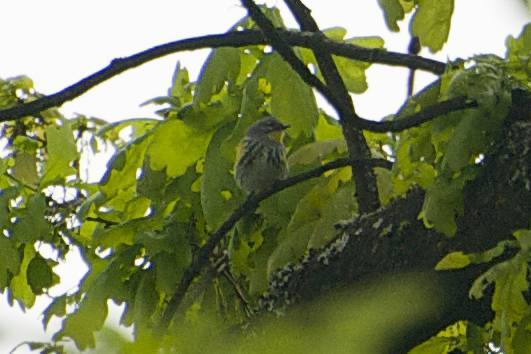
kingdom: Animalia
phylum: Chordata
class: Aves
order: Passeriformes
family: Parulidae
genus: Setophaga
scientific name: Setophaga auduboni
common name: Audubon's warbler
